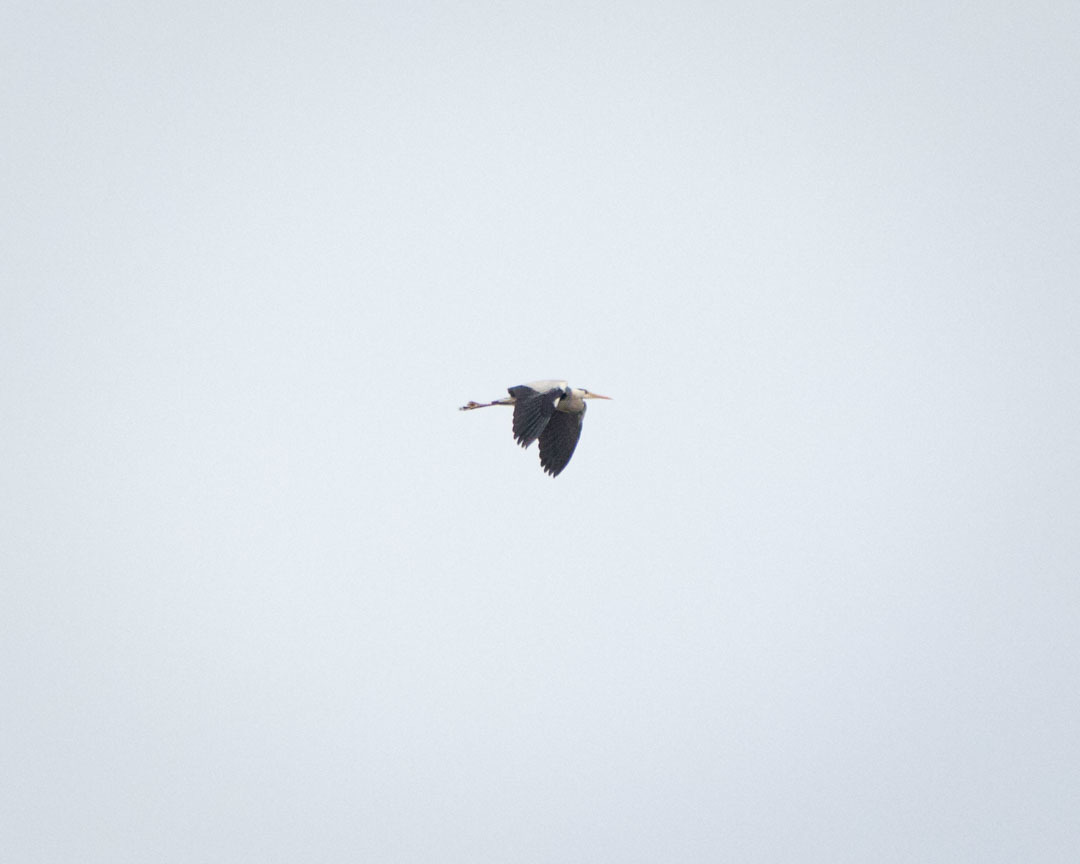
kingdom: Animalia
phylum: Chordata
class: Aves
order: Pelecaniformes
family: Ardeidae
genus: Ardea
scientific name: Ardea cinerea
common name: Grey heron
